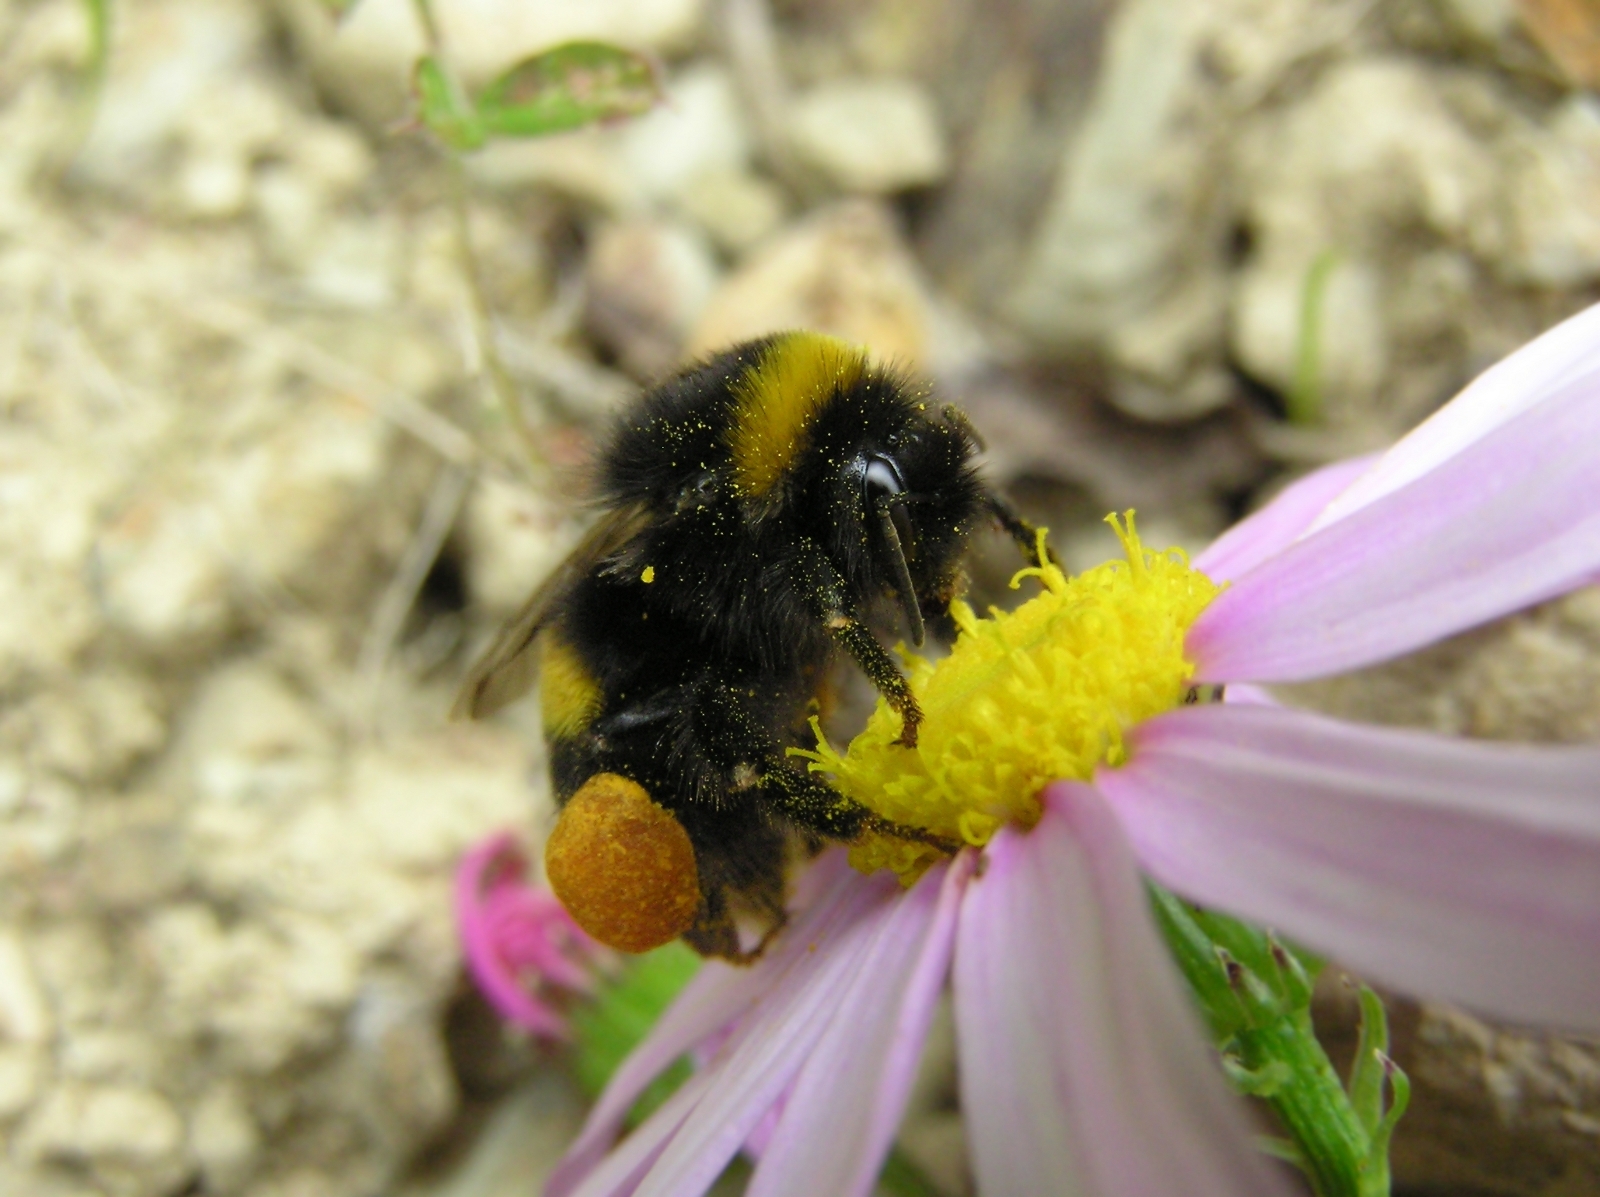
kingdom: Animalia
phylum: Arthropoda
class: Insecta
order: Hymenoptera
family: Apidae
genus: Bombus
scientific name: Bombus terrestris
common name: Buff-tailed bumblebee
